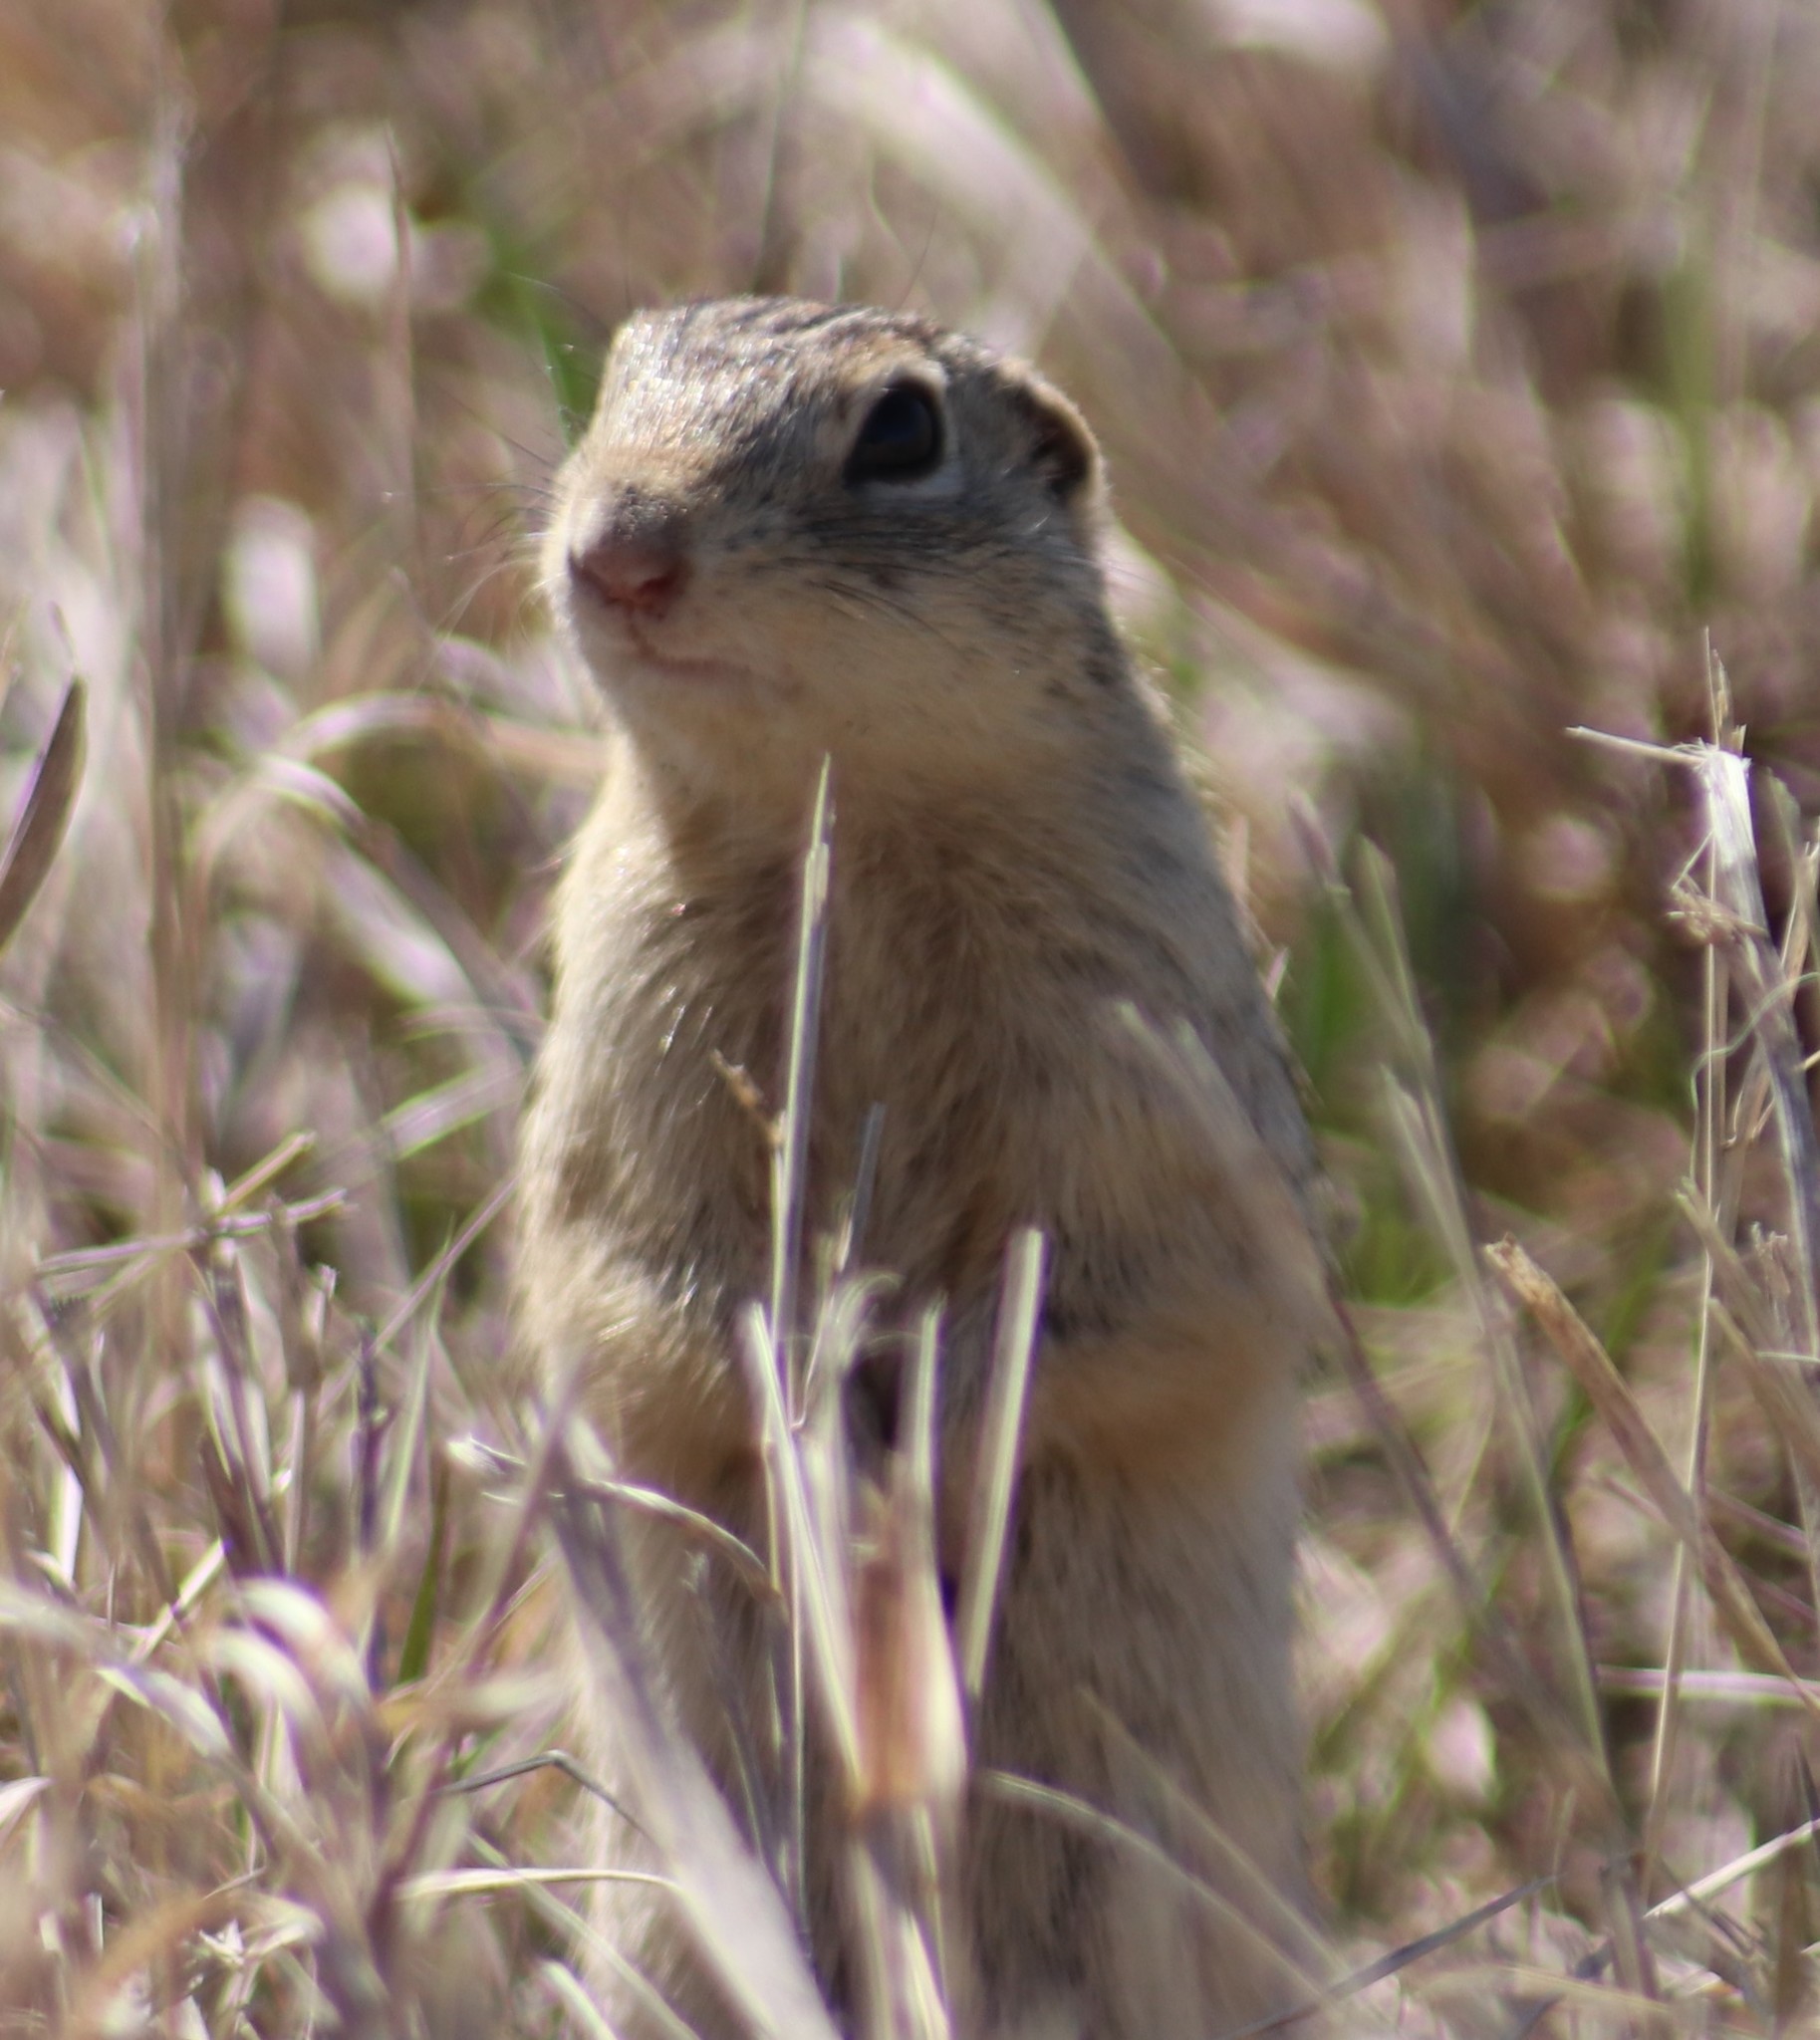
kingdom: Animalia
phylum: Chordata
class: Mammalia
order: Rodentia
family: Sciuridae
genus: Ictidomys
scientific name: Ictidomys tridecemlineatus
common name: Thirteen-lined ground squirrel
